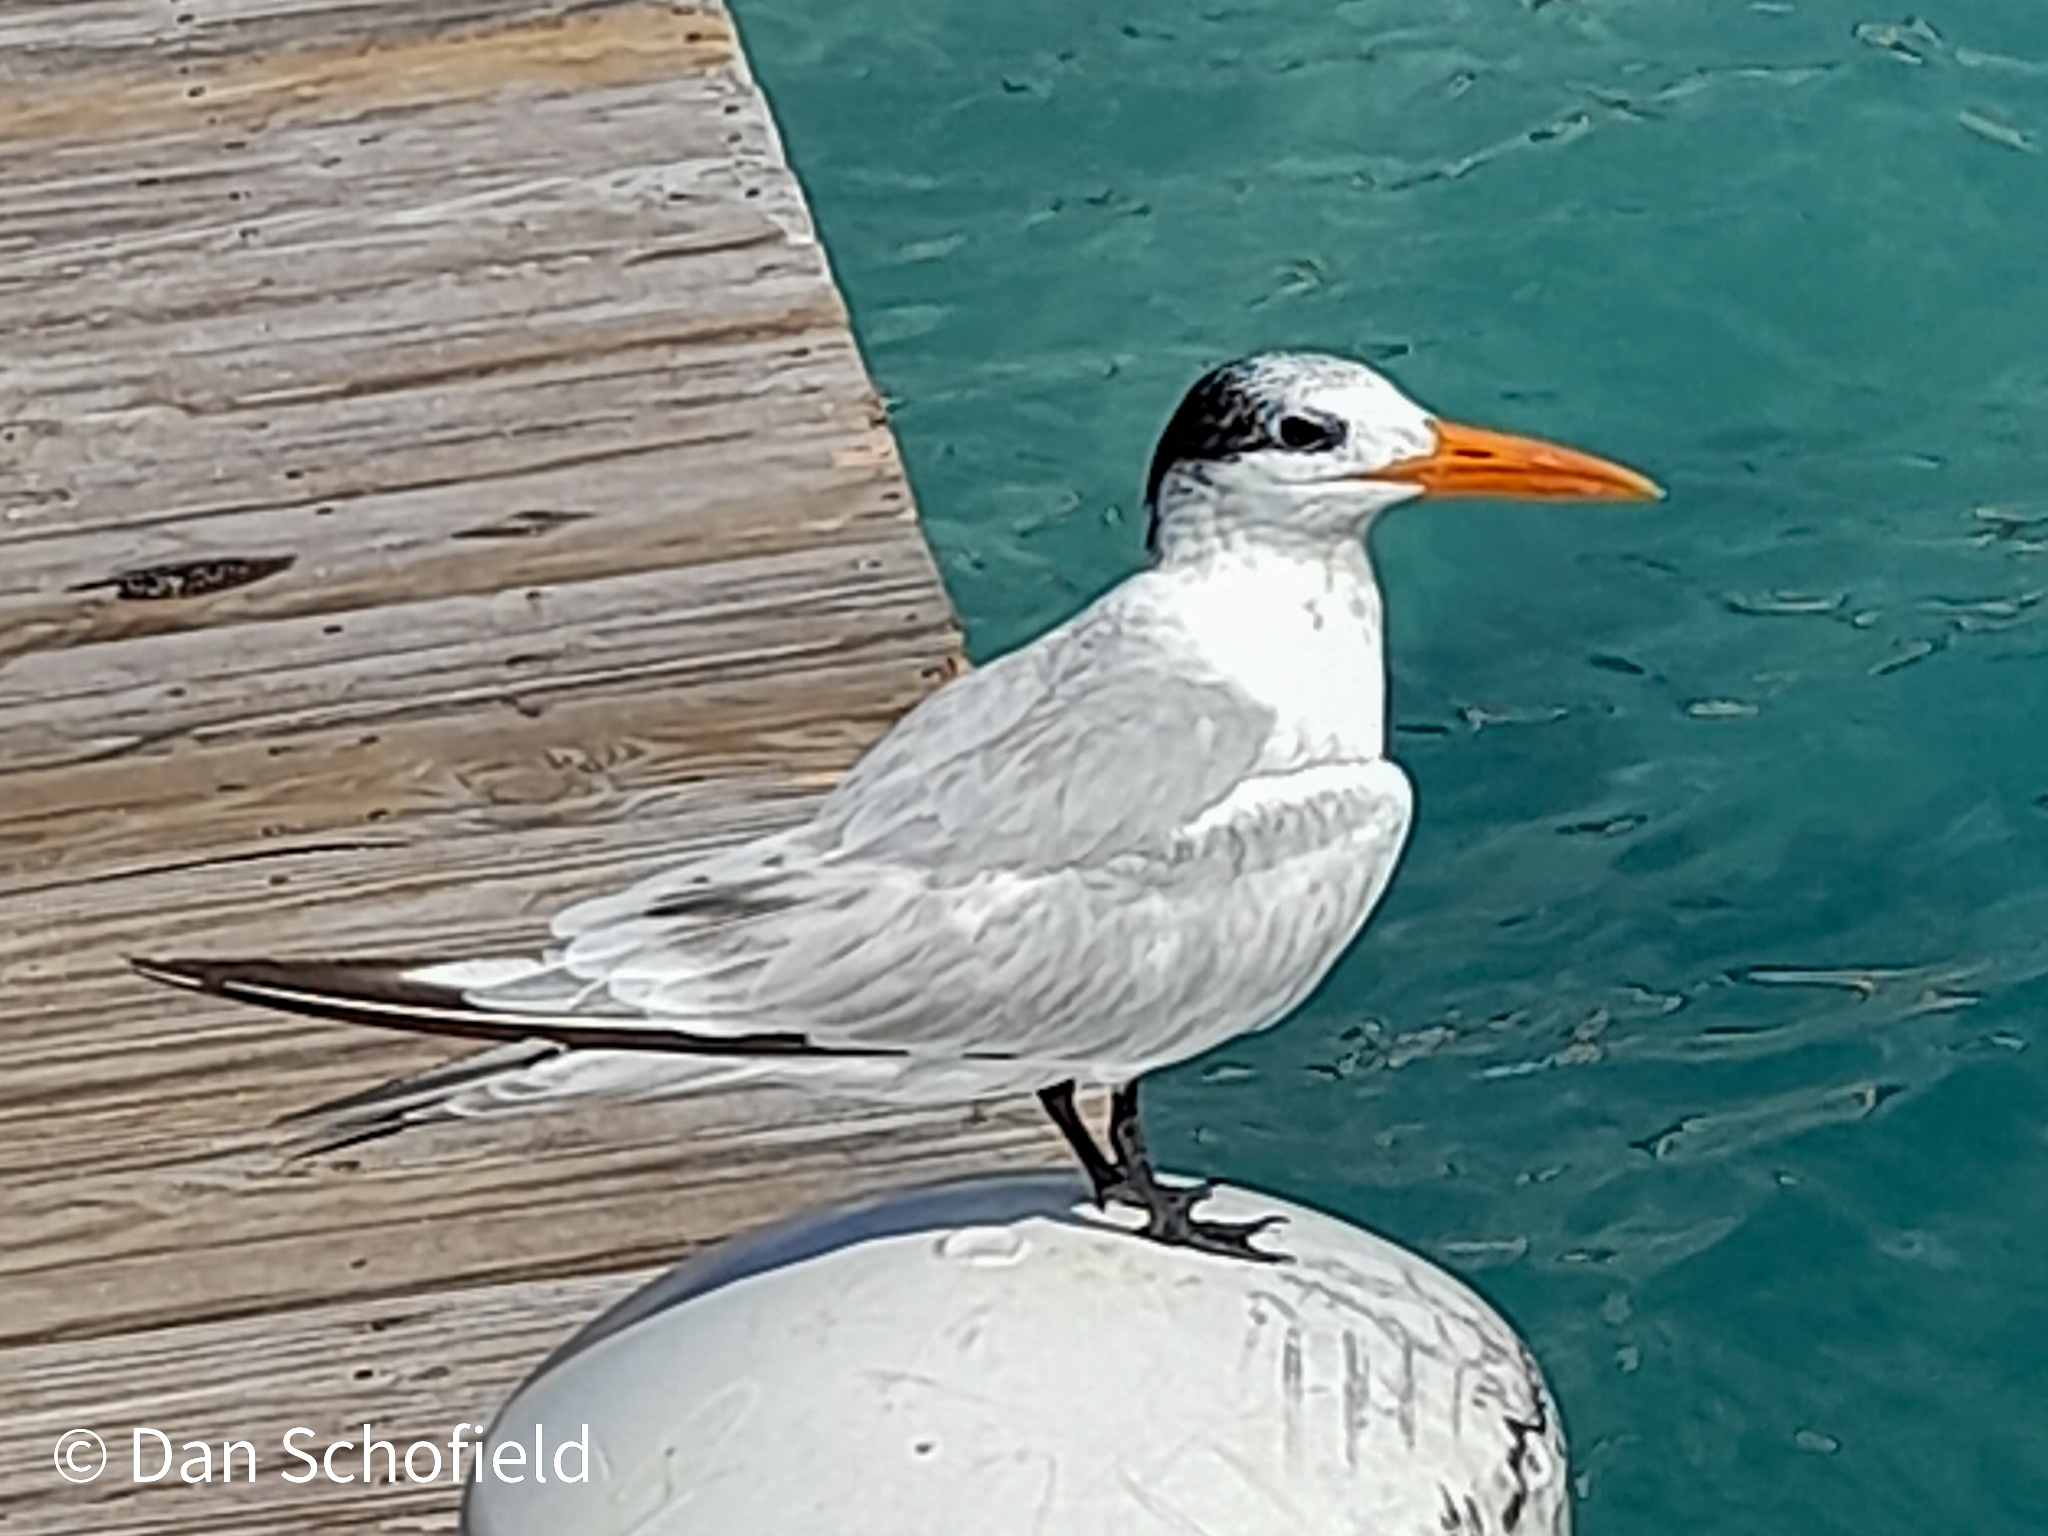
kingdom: Animalia
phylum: Chordata
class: Aves
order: Charadriiformes
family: Laridae
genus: Thalasseus
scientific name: Thalasseus maximus
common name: Royal tern
